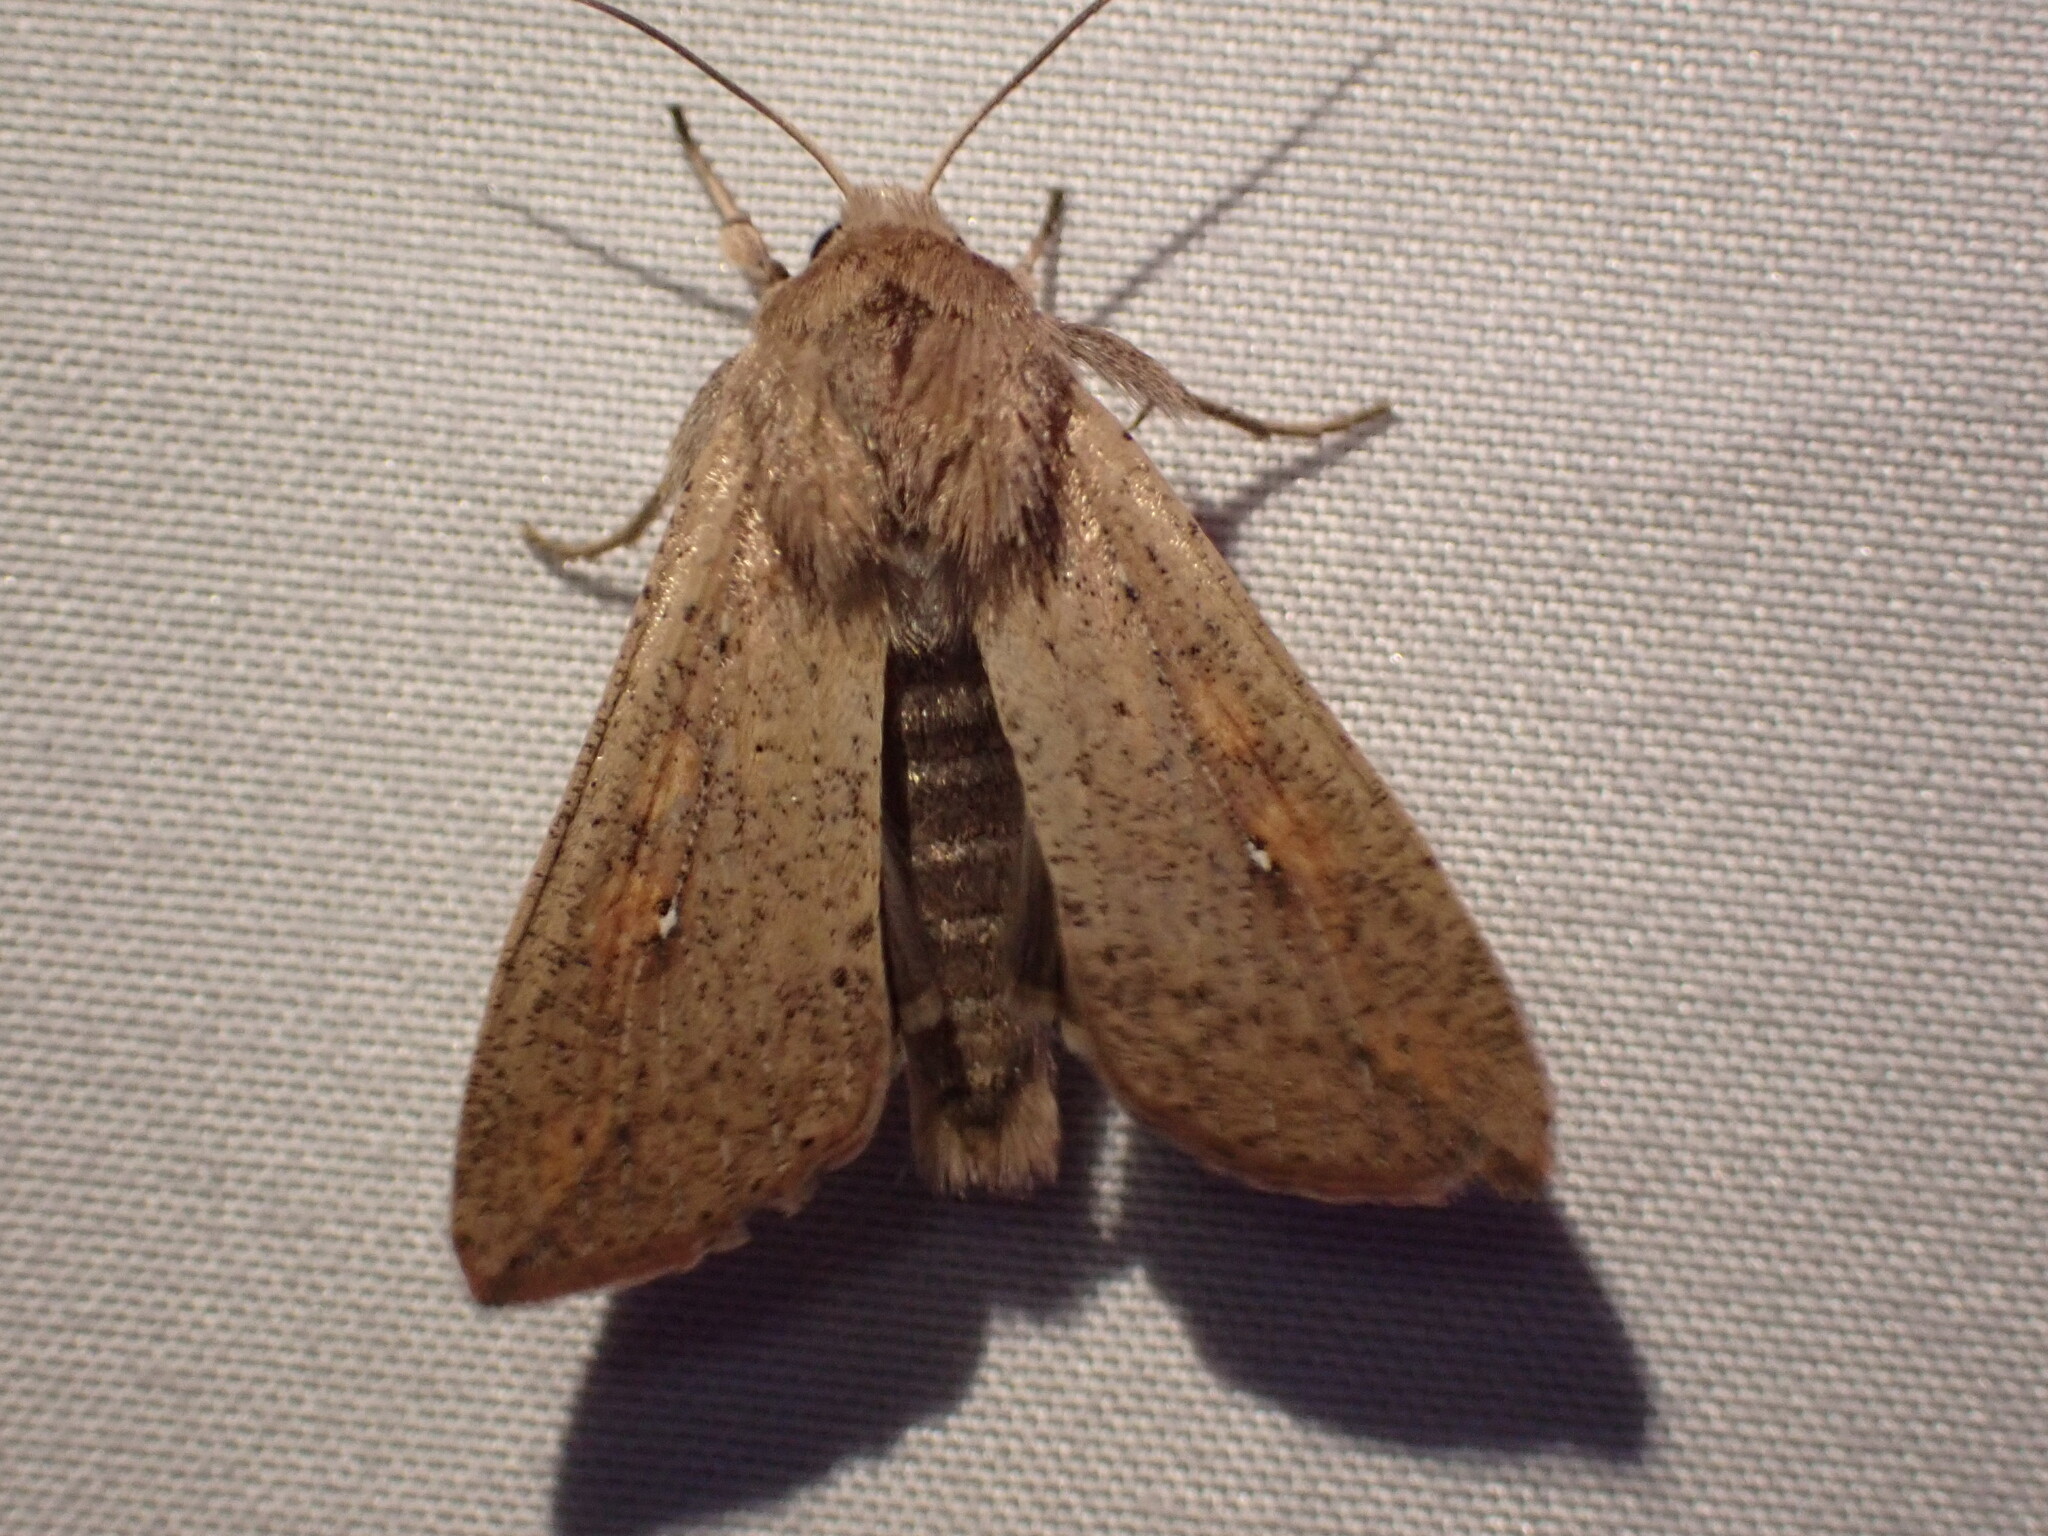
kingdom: Animalia
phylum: Arthropoda
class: Insecta
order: Lepidoptera
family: Noctuidae
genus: Mythimna
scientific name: Mythimna unipuncta
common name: White-speck
